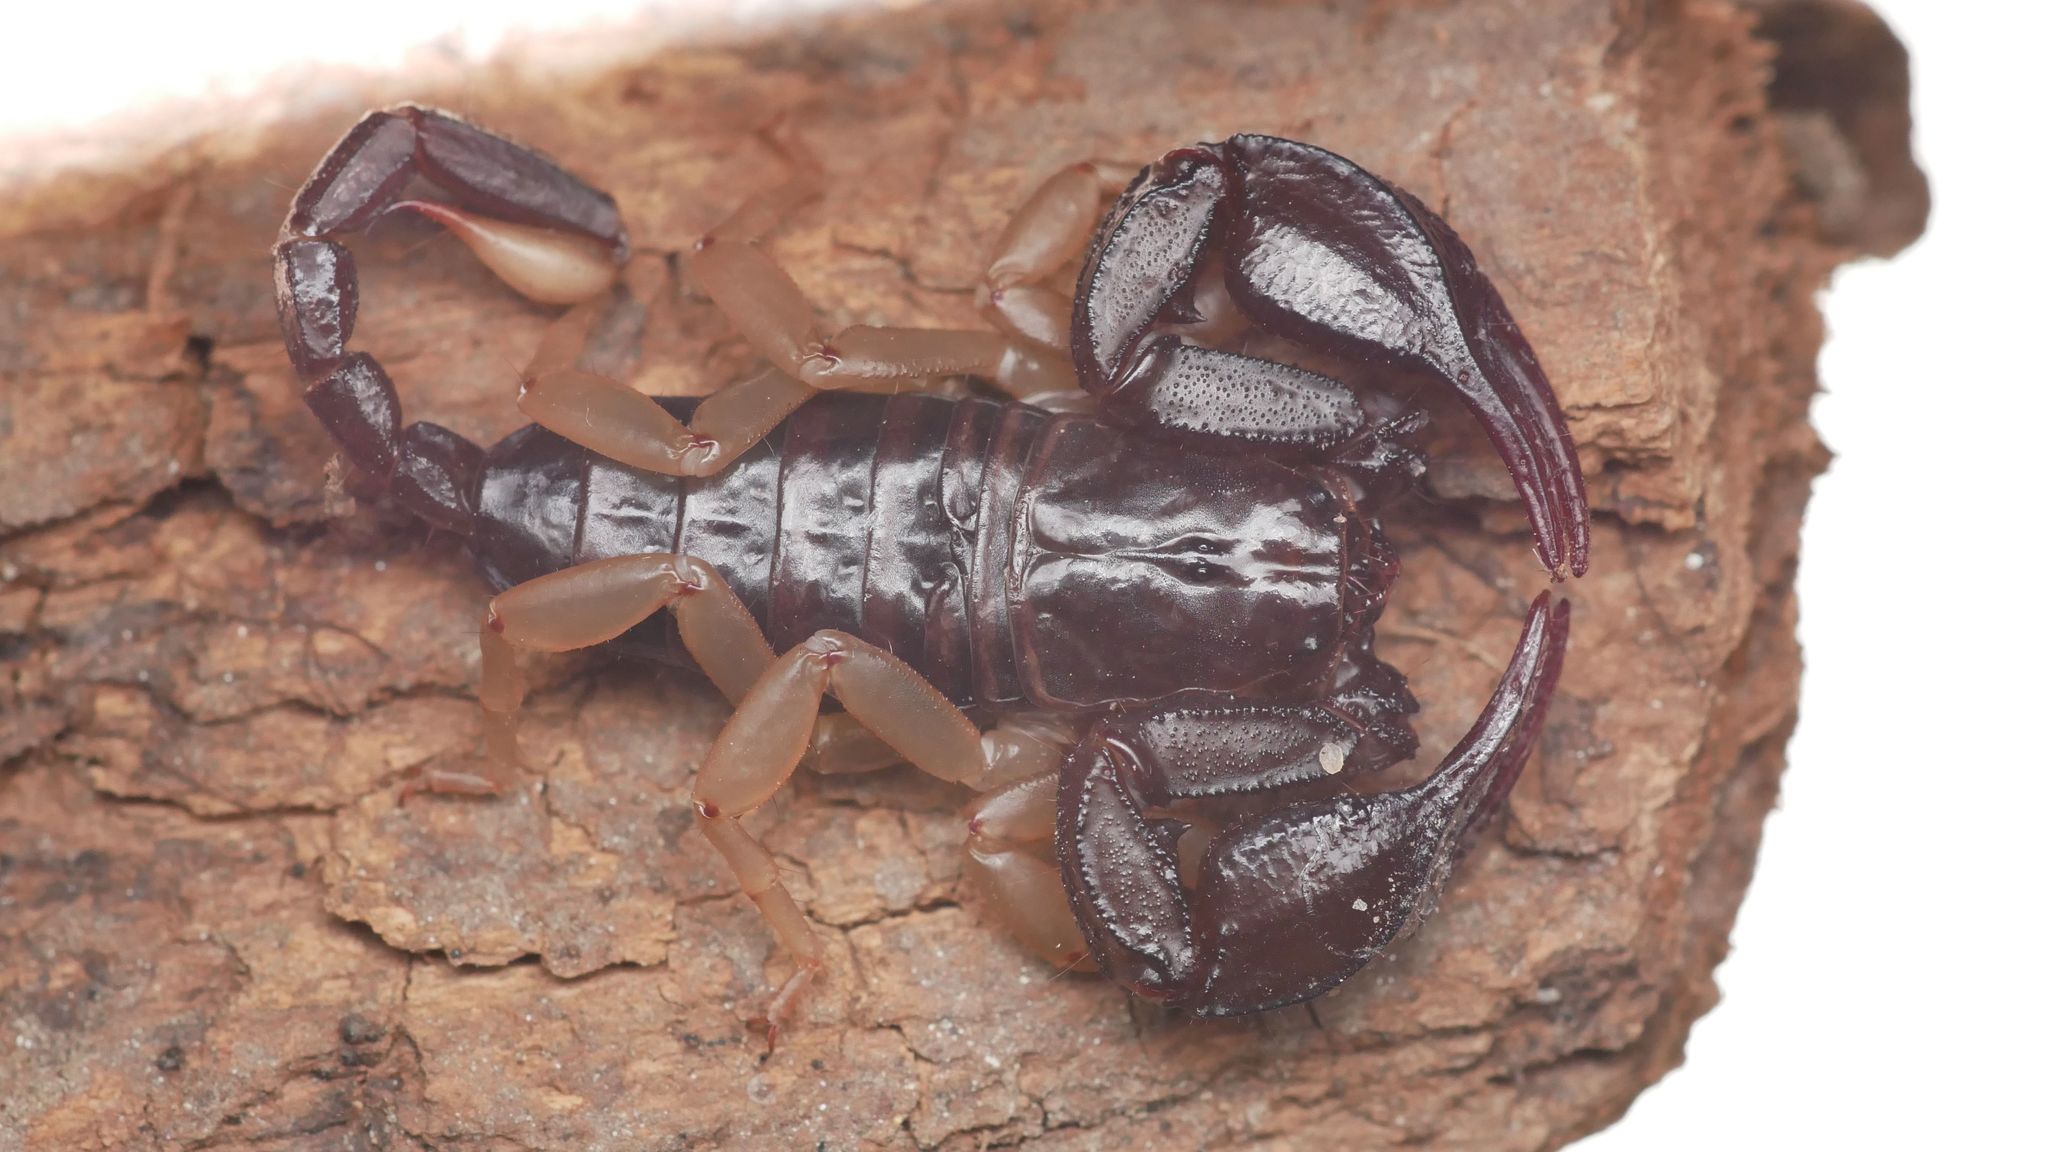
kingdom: Animalia
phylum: Arthropoda
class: Arachnida
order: Scorpiones
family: Euscorpiidae
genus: Euscorpius
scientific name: Euscorpius flavicaudis
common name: European yellow-tailed scorpion
